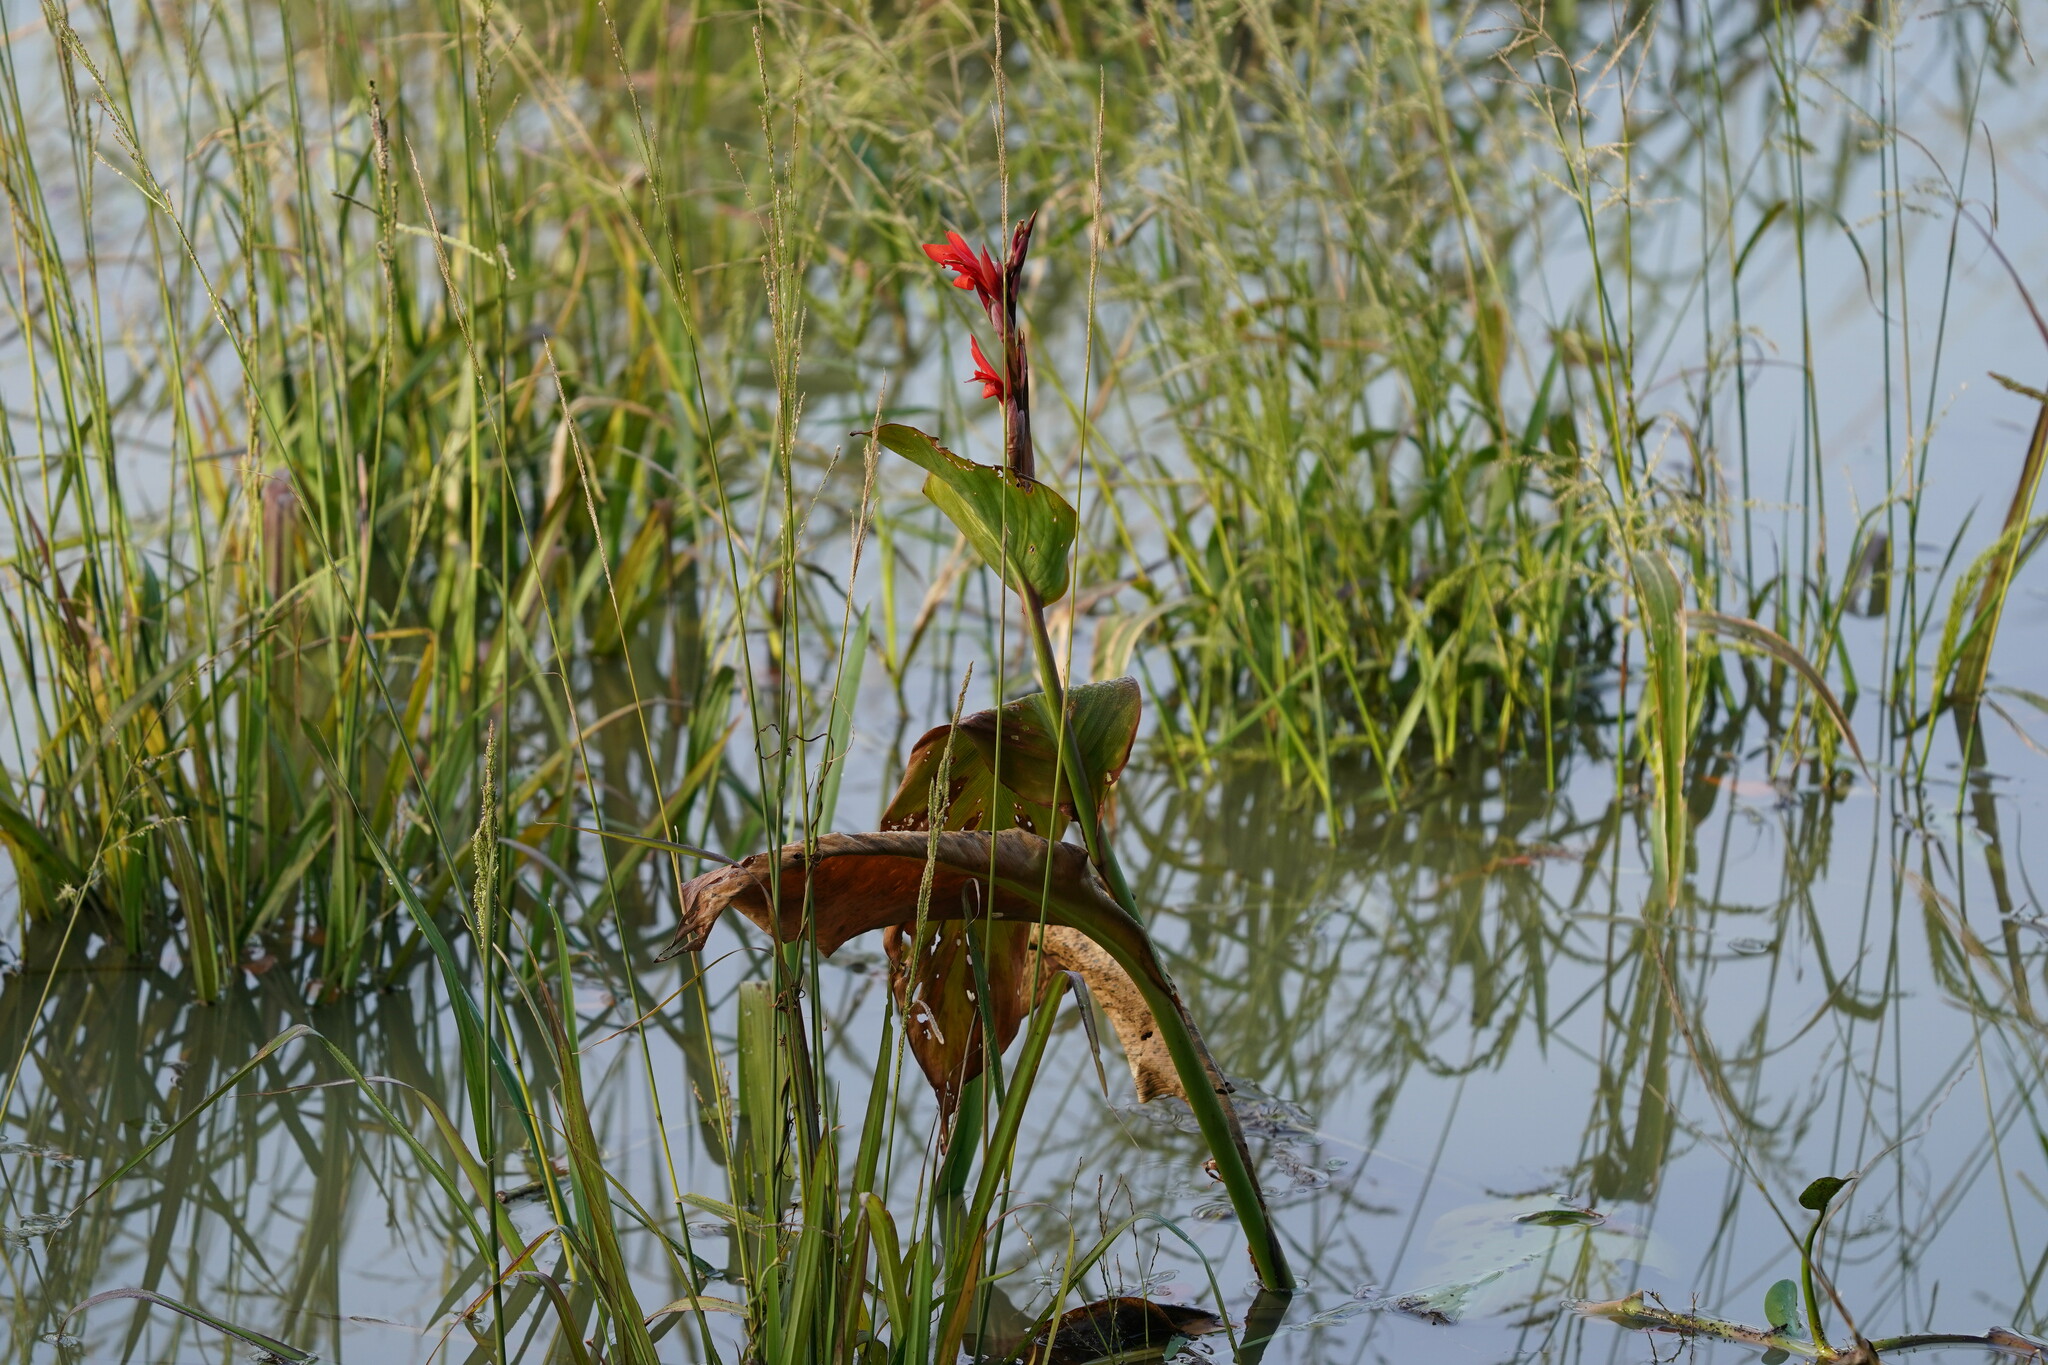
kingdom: Plantae
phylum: Tracheophyta
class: Liliopsida
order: Zingiberales
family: Cannaceae
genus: Canna
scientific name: Canna indica
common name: Indian shot
